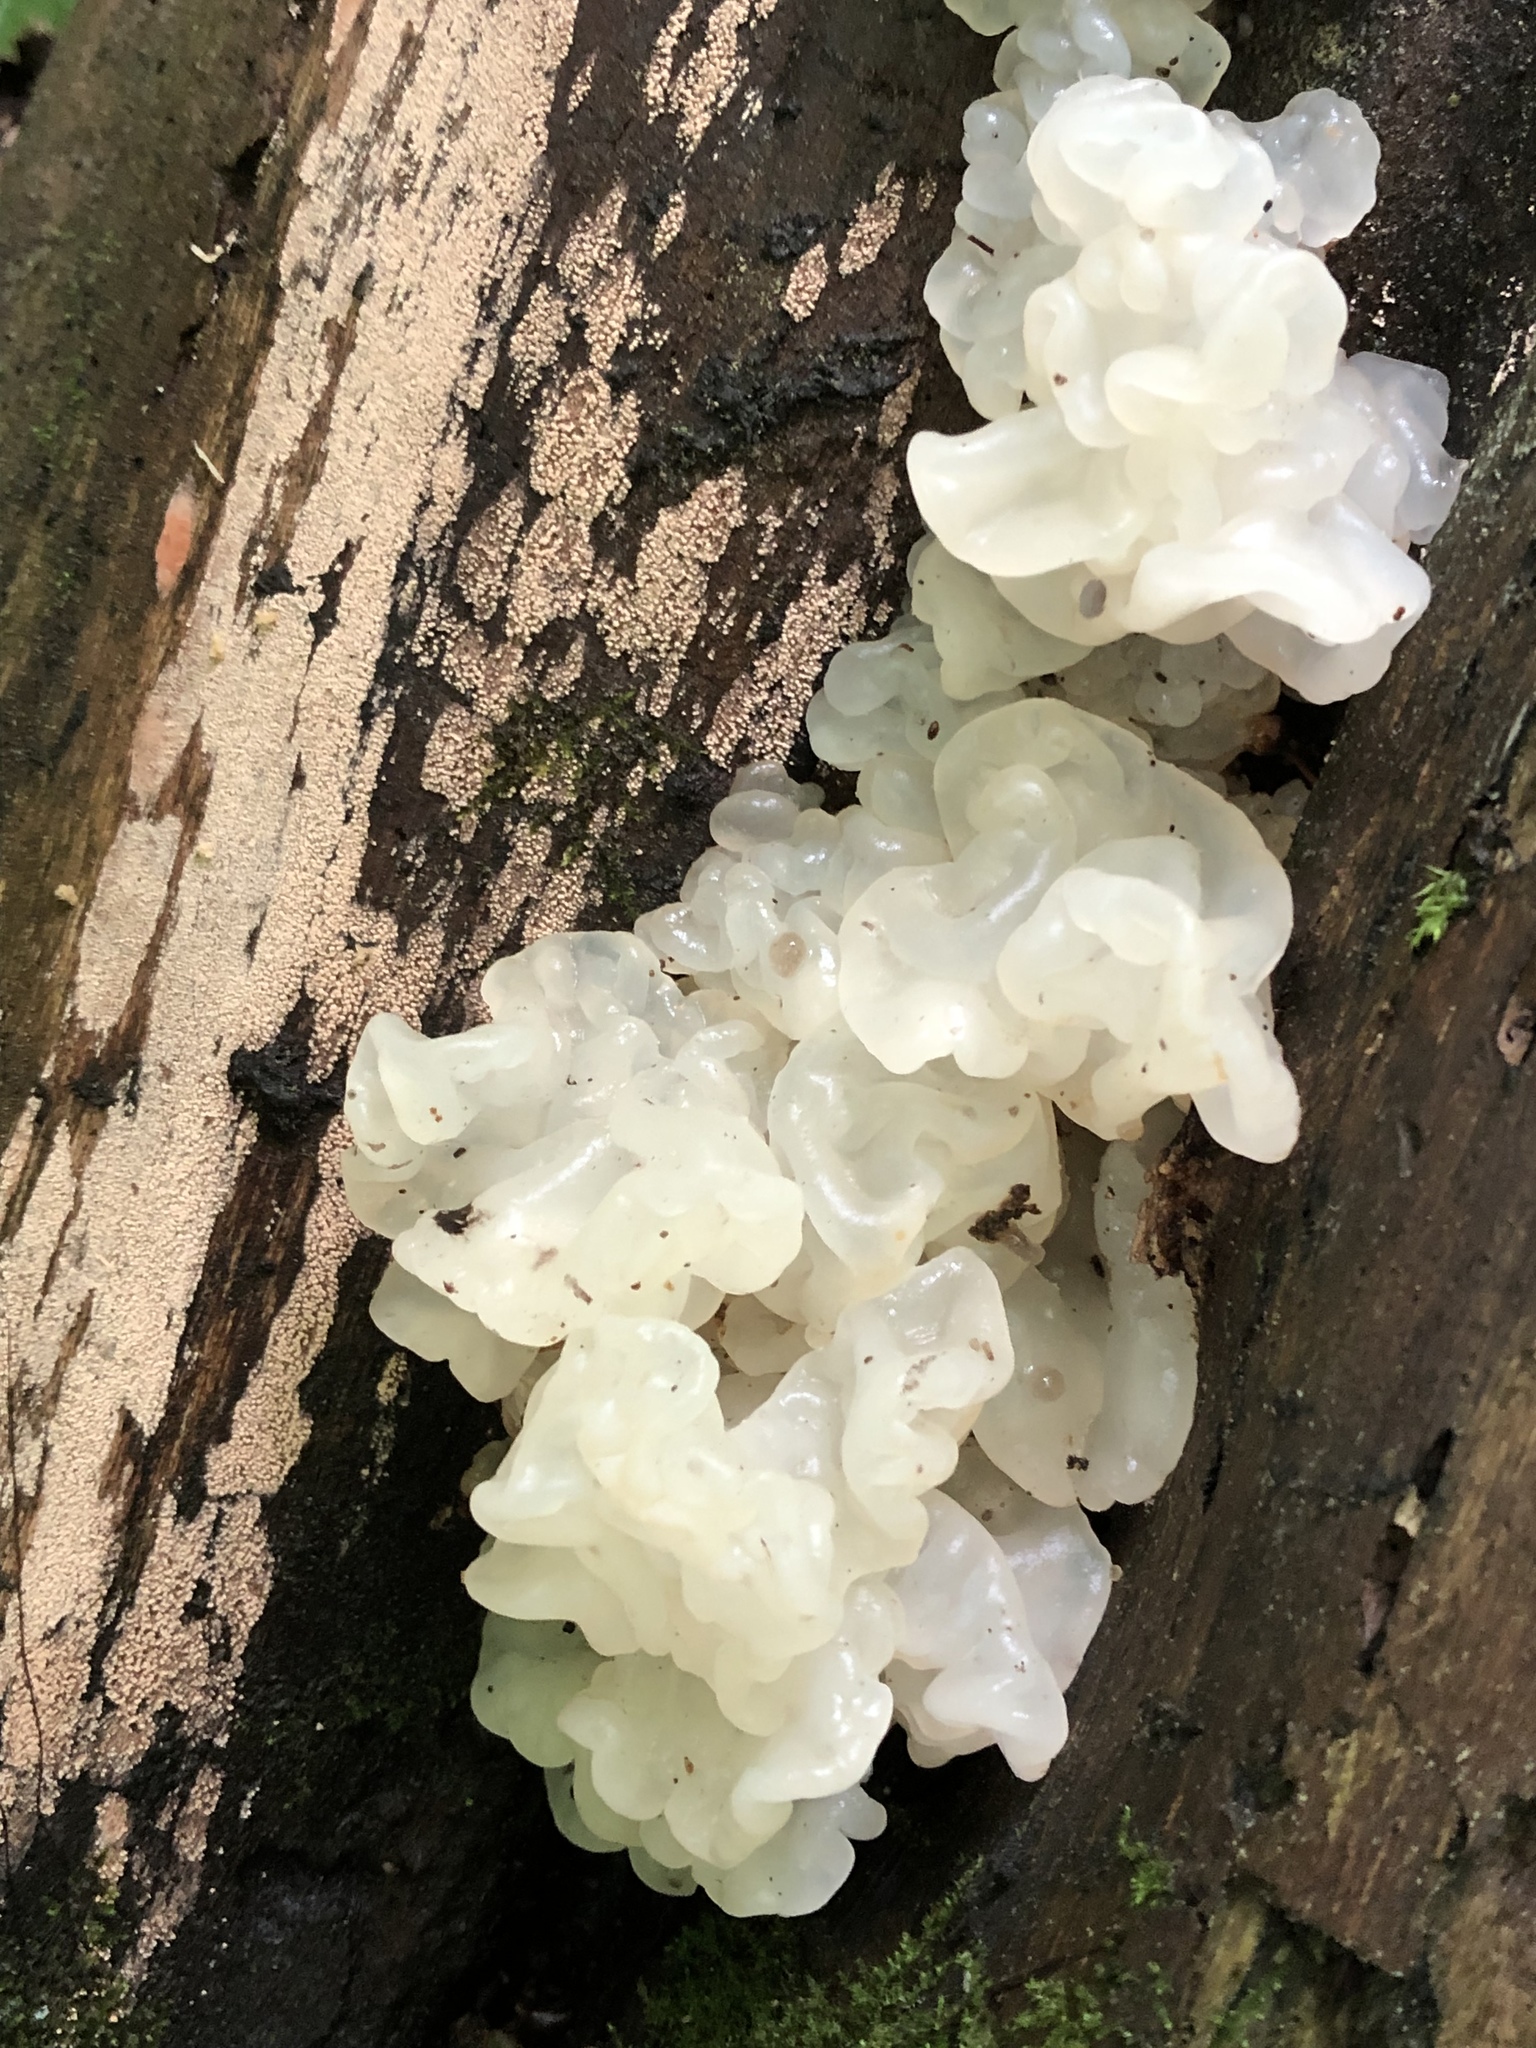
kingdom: Fungi
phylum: Basidiomycota
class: Agaricomycetes
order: Auriculariales
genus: Ductifera
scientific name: Ductifera pululahuana
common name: White jelly fungus
